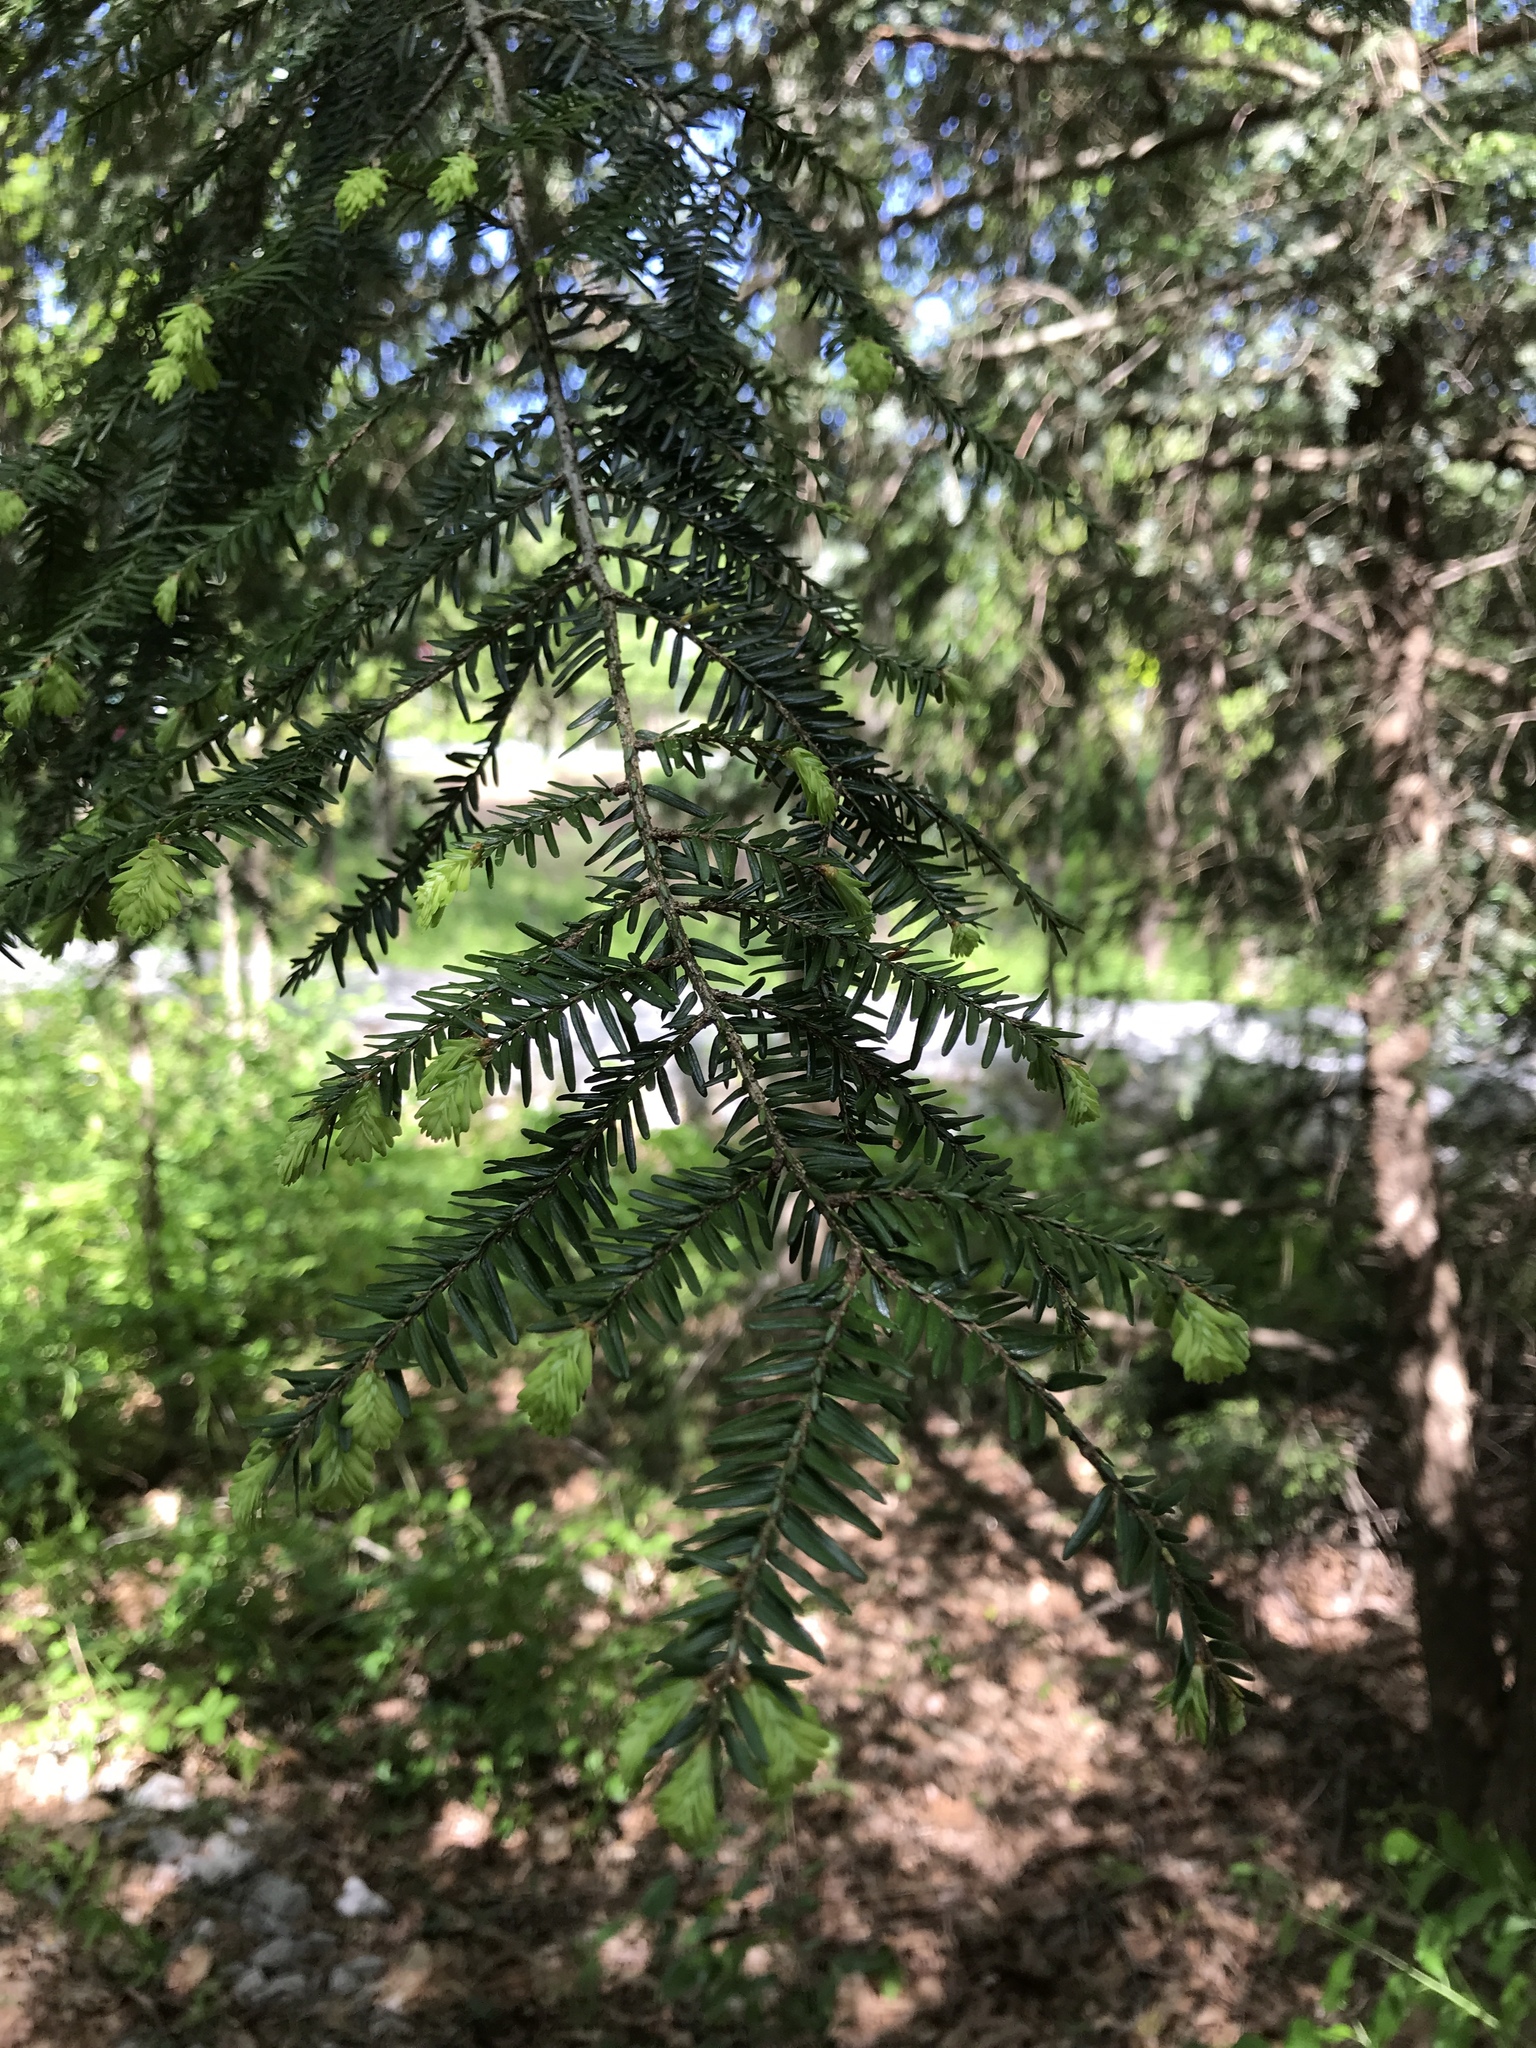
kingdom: Plantae
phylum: Tracheophyta
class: Pinopsida
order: Pinales
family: Pinaceae
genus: Tsuga
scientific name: Tsuga canadensis
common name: Eastern hemlock
